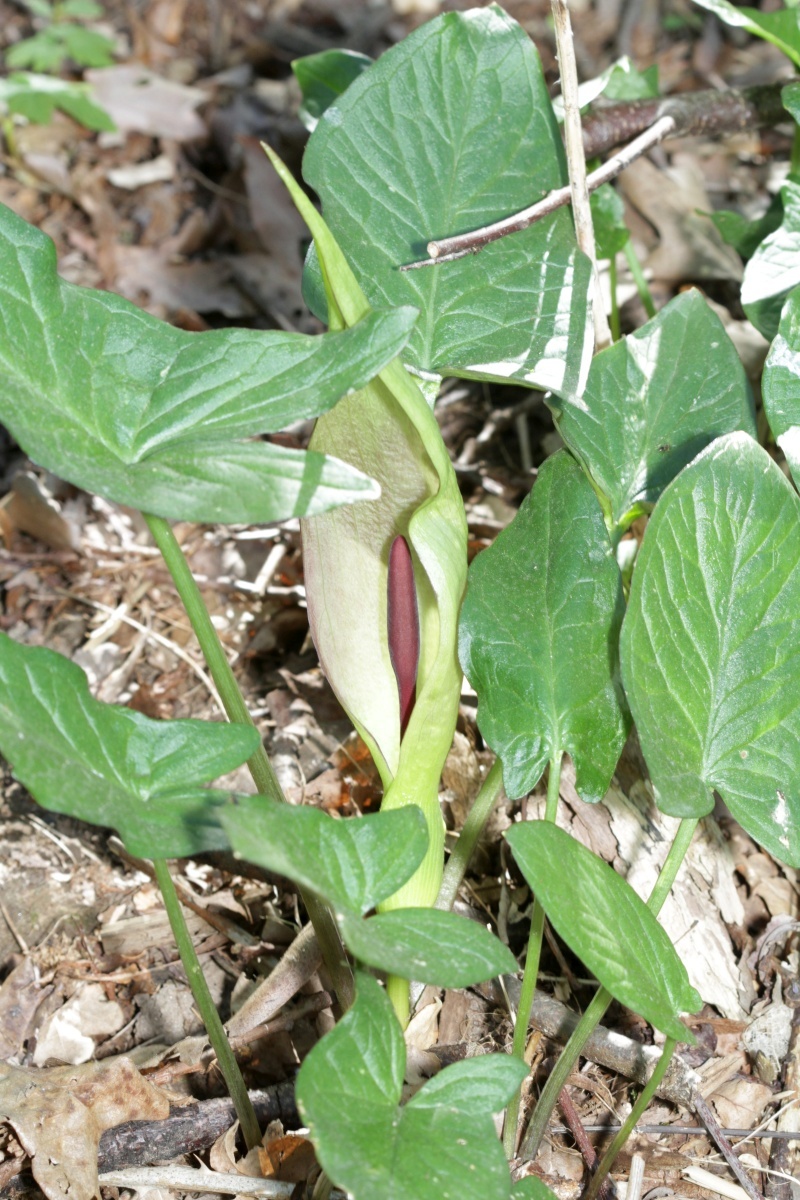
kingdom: Plantae
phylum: Tracheophyta
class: Liliopsida
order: Alismatales
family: Araceae
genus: Arum
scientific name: Arum maculatum
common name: Lords-and-ladies
